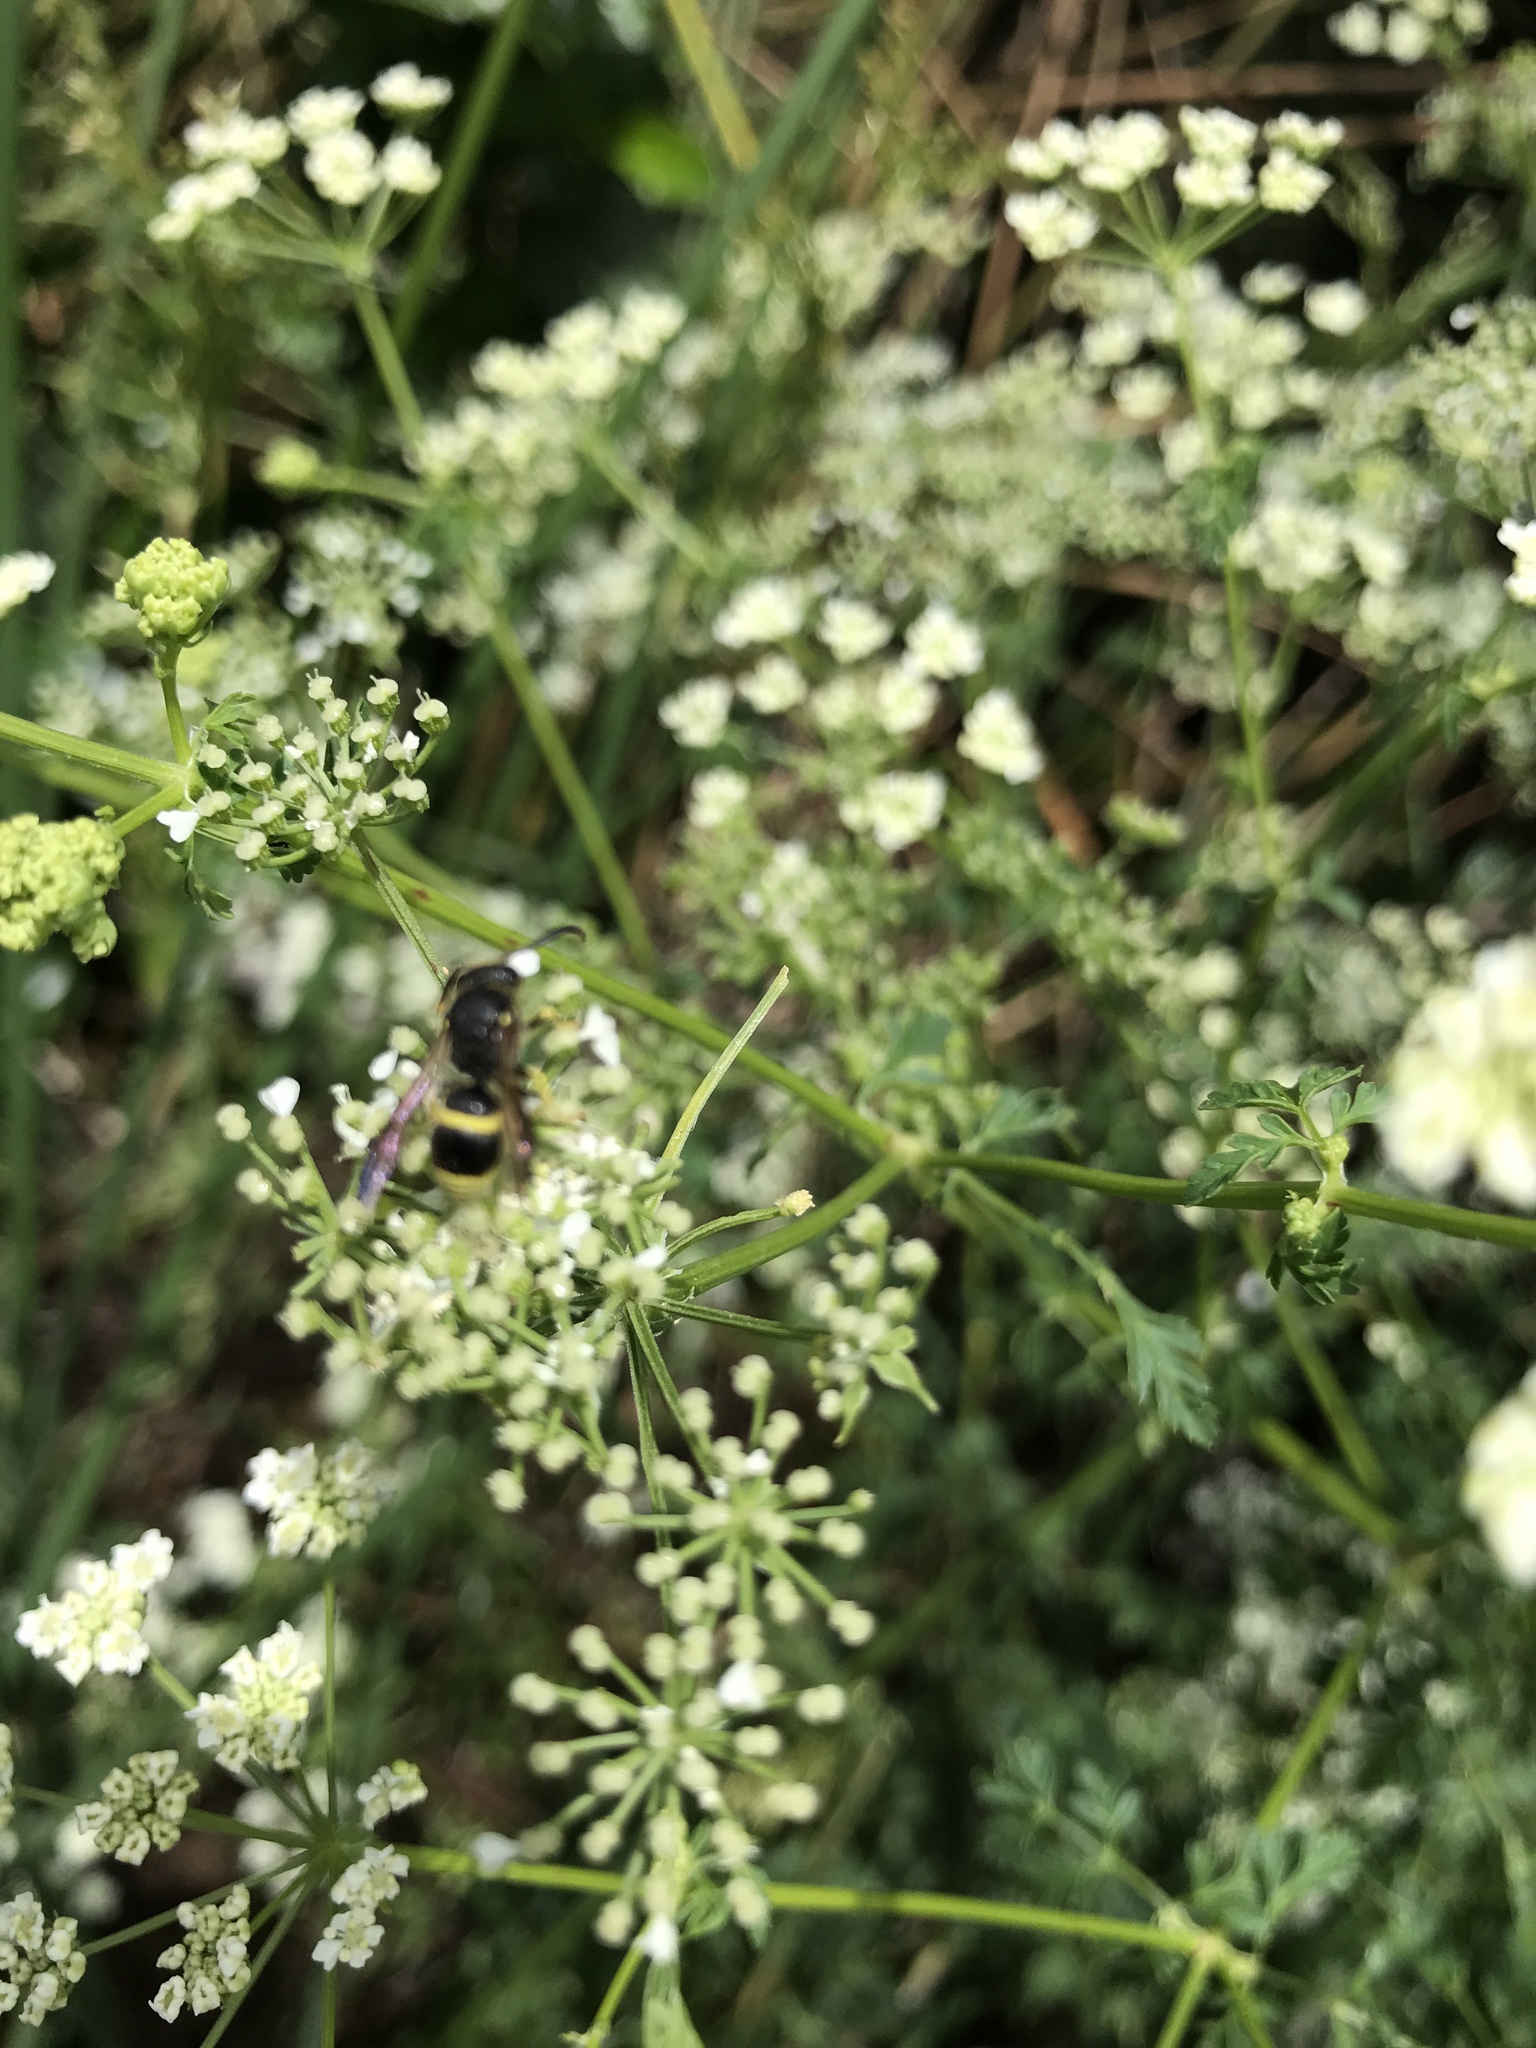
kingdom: Animalia
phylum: Arthropoda
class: Insecta
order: Hymenoptera
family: Vespidae
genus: Ancistrocerus
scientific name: Ancistrocerus gazella
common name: European tube wasp
